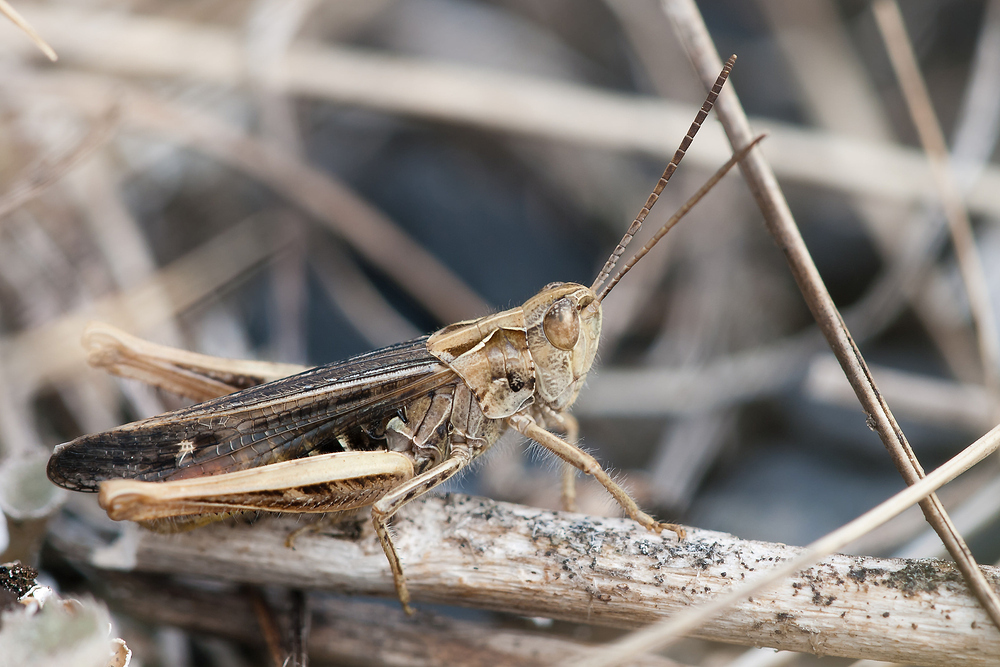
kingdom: Animalia
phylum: Arthropoda
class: Insecta
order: Orthoptera
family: Acrididae
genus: Chorthippus
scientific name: Chorthippus biguttulus
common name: Bow-winged grasshopper
